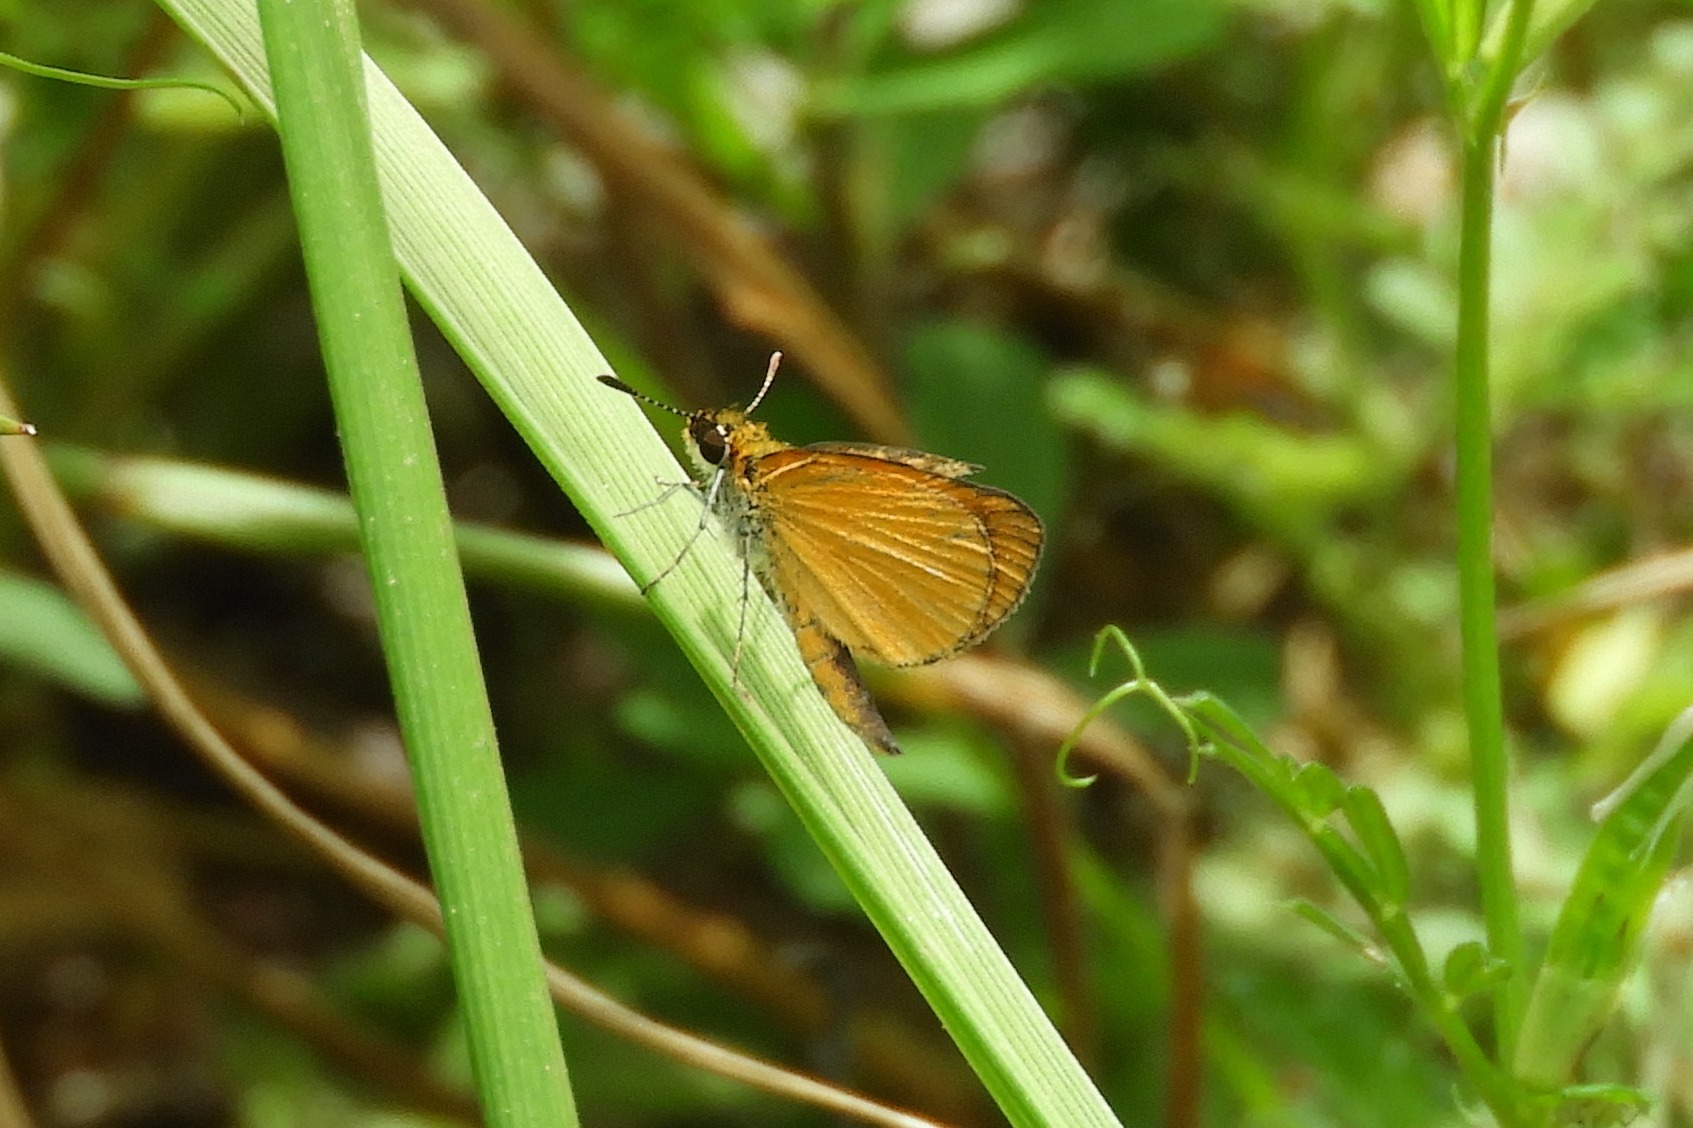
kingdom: Animalia
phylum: Arthropoda
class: Insecta
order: Lepidoptera
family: Hesperiidae
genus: Ancyloxypha
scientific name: Ancyloxypha numitor
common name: Least skipper
